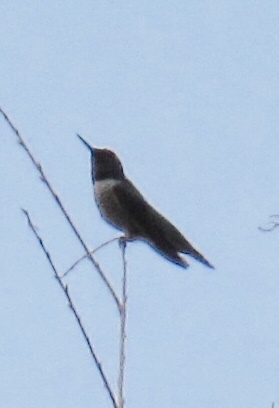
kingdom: Animalia
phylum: Chordata
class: Aves
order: Apodiformes
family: Trochilidae
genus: Calypte
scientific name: Calypte anna
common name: Anna's hummingbird
